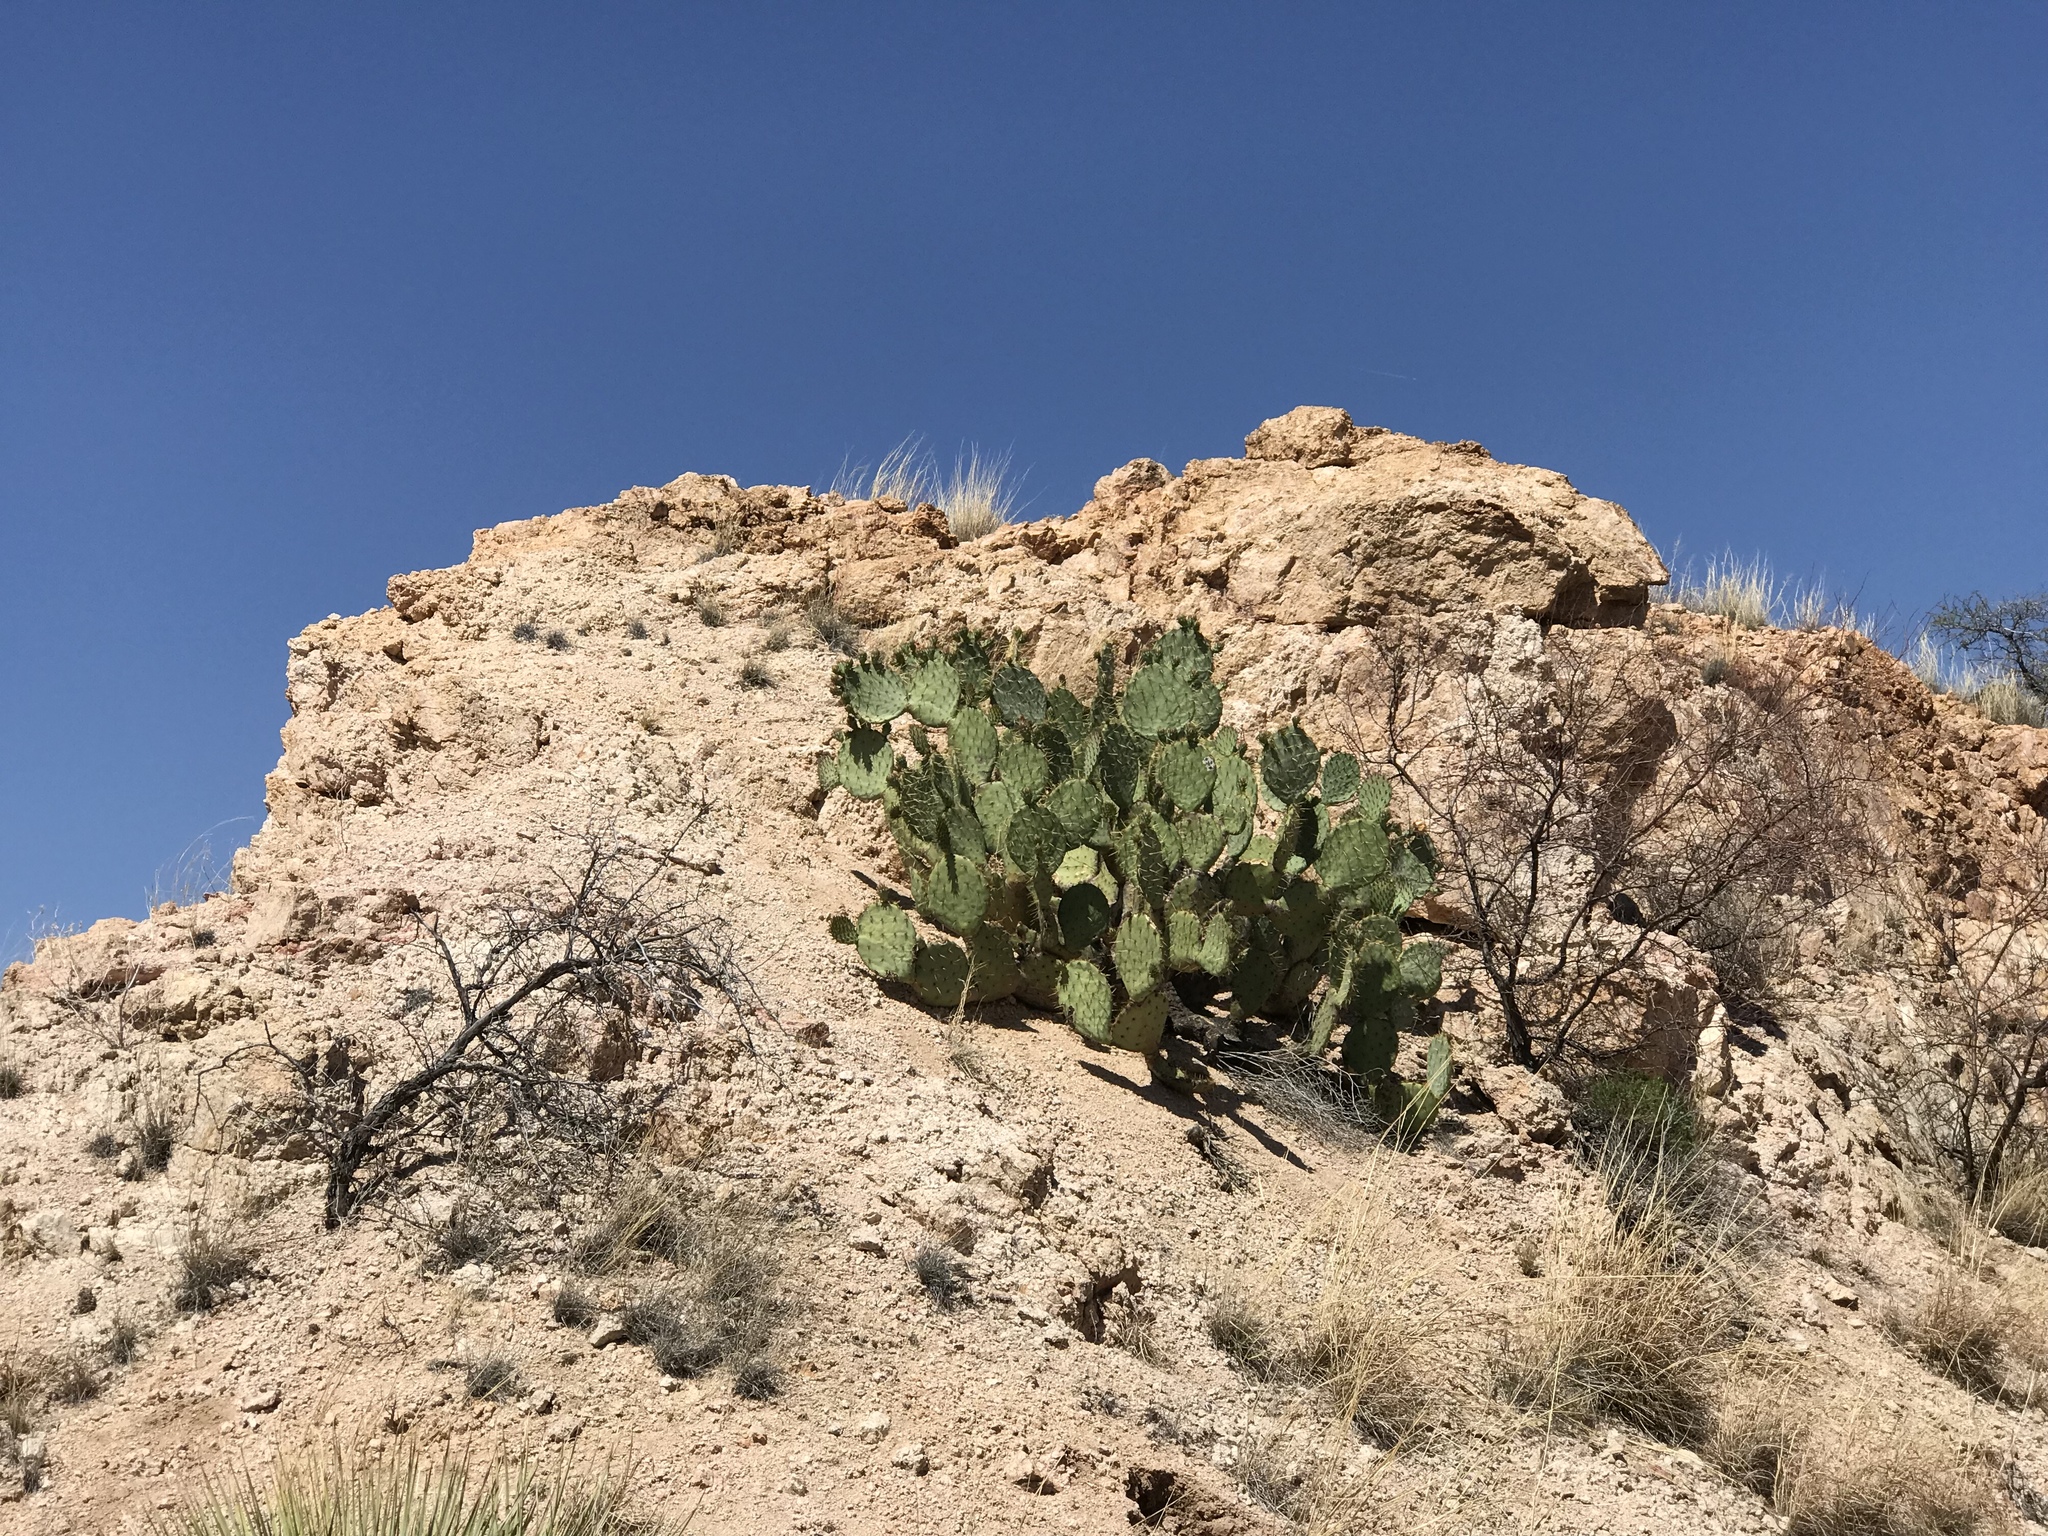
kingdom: Plantae
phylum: Tracheophyta
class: Magnoliopsida
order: Caryophyllales
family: Cactaceae
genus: Opuntia
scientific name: Opuntia engelmannii
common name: Cactus-apple
